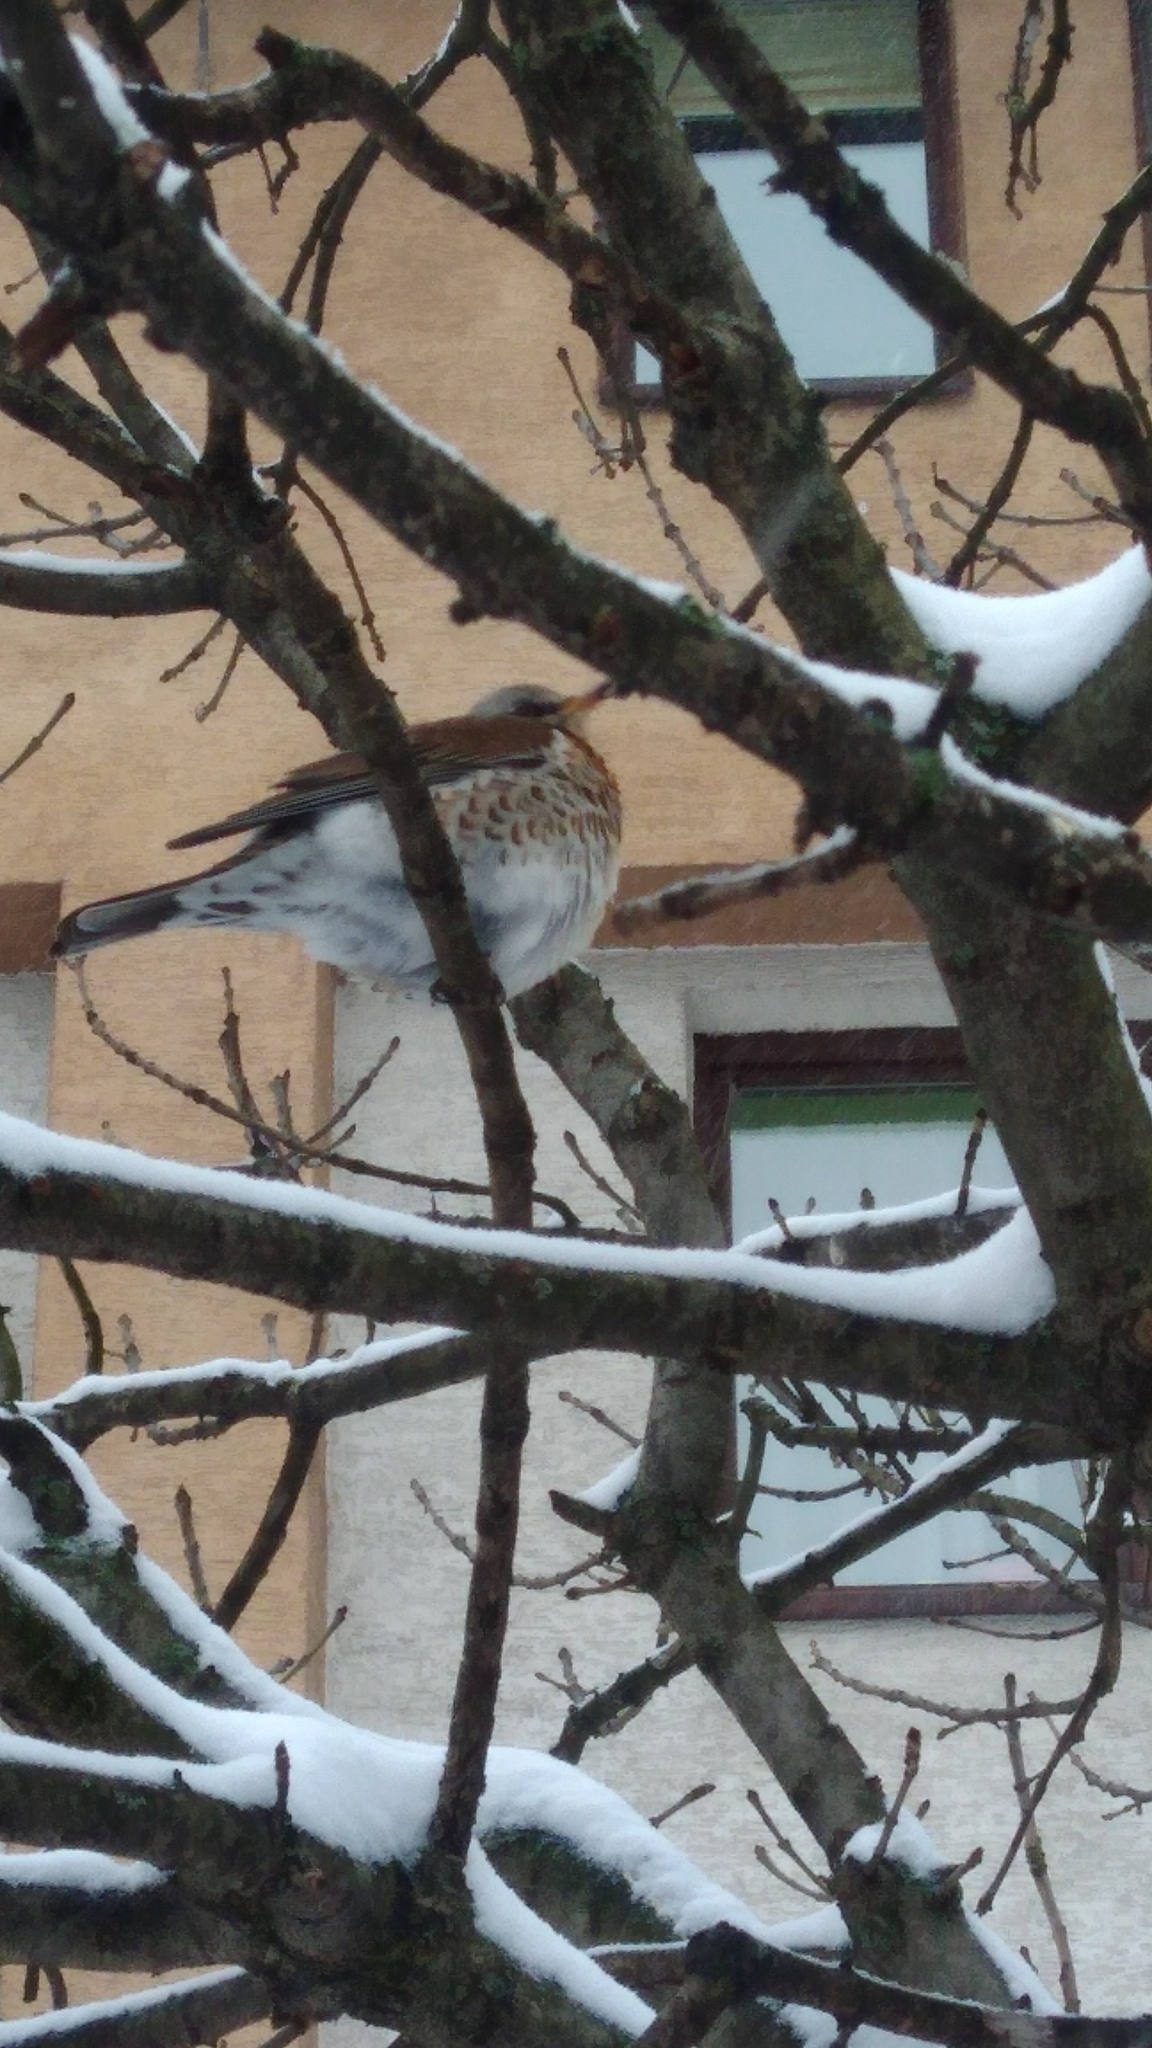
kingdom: Animalia
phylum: Chordata
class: Aves
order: Passeriformes
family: Turdidae
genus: Turdus
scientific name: Turdus pilaris
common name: Fieldfare
